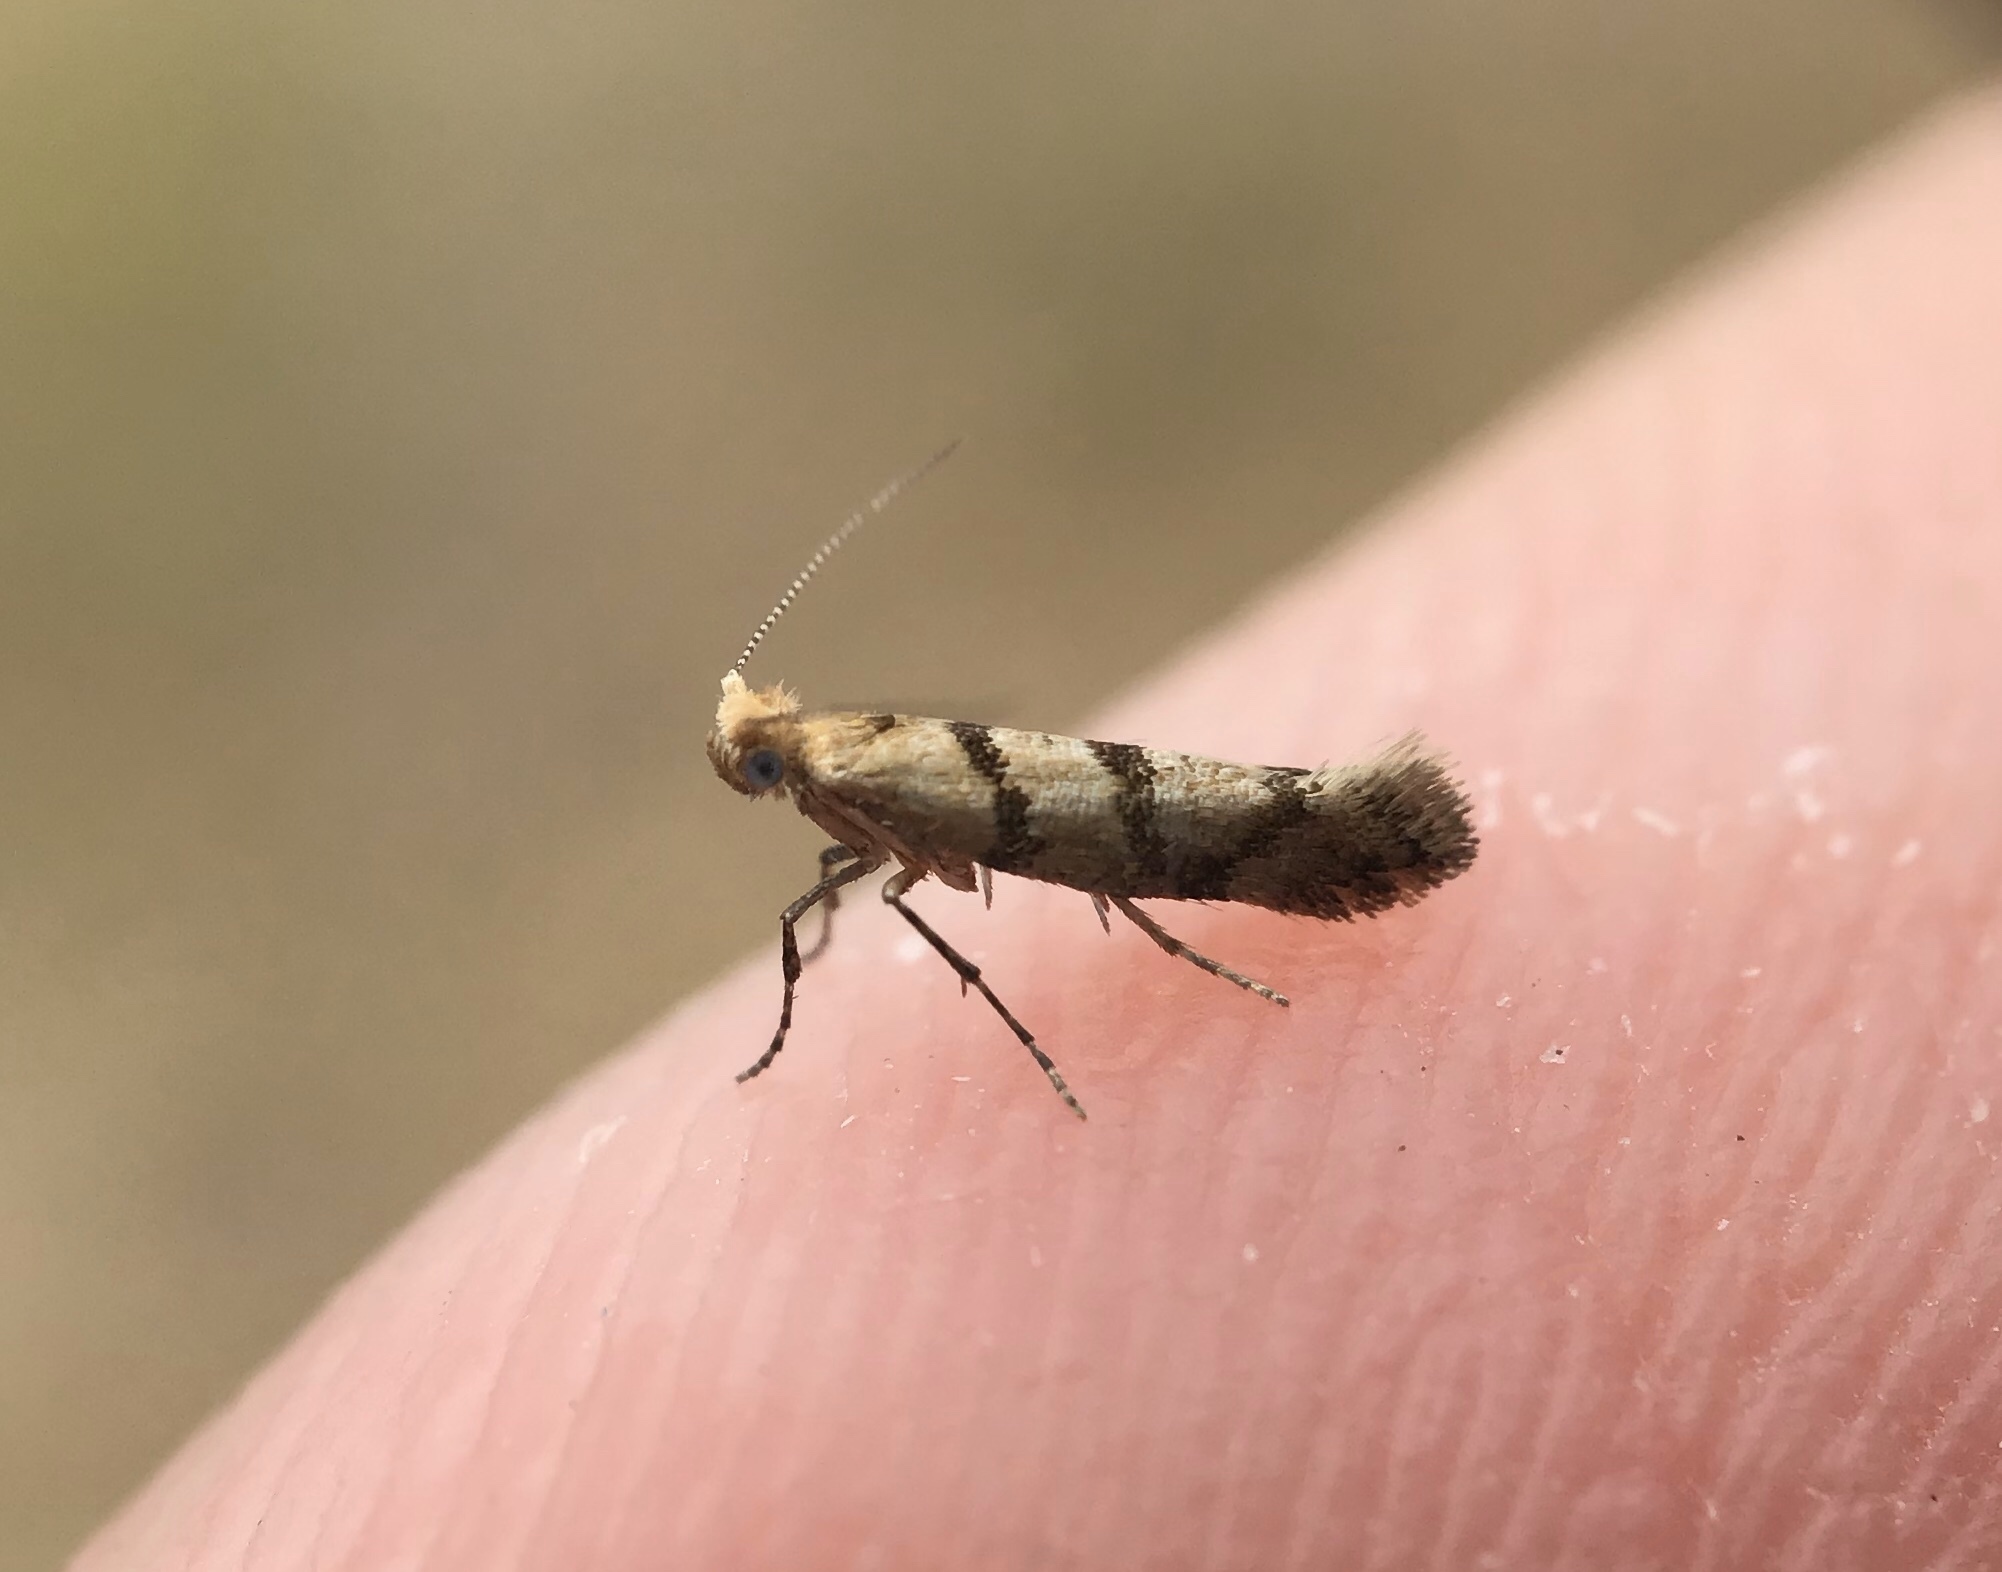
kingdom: Animalia
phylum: Arthropoda
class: Insecta
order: Lepidoptera
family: Argyresthiidae
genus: Argyresthia
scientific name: Argyresthia franciscella
